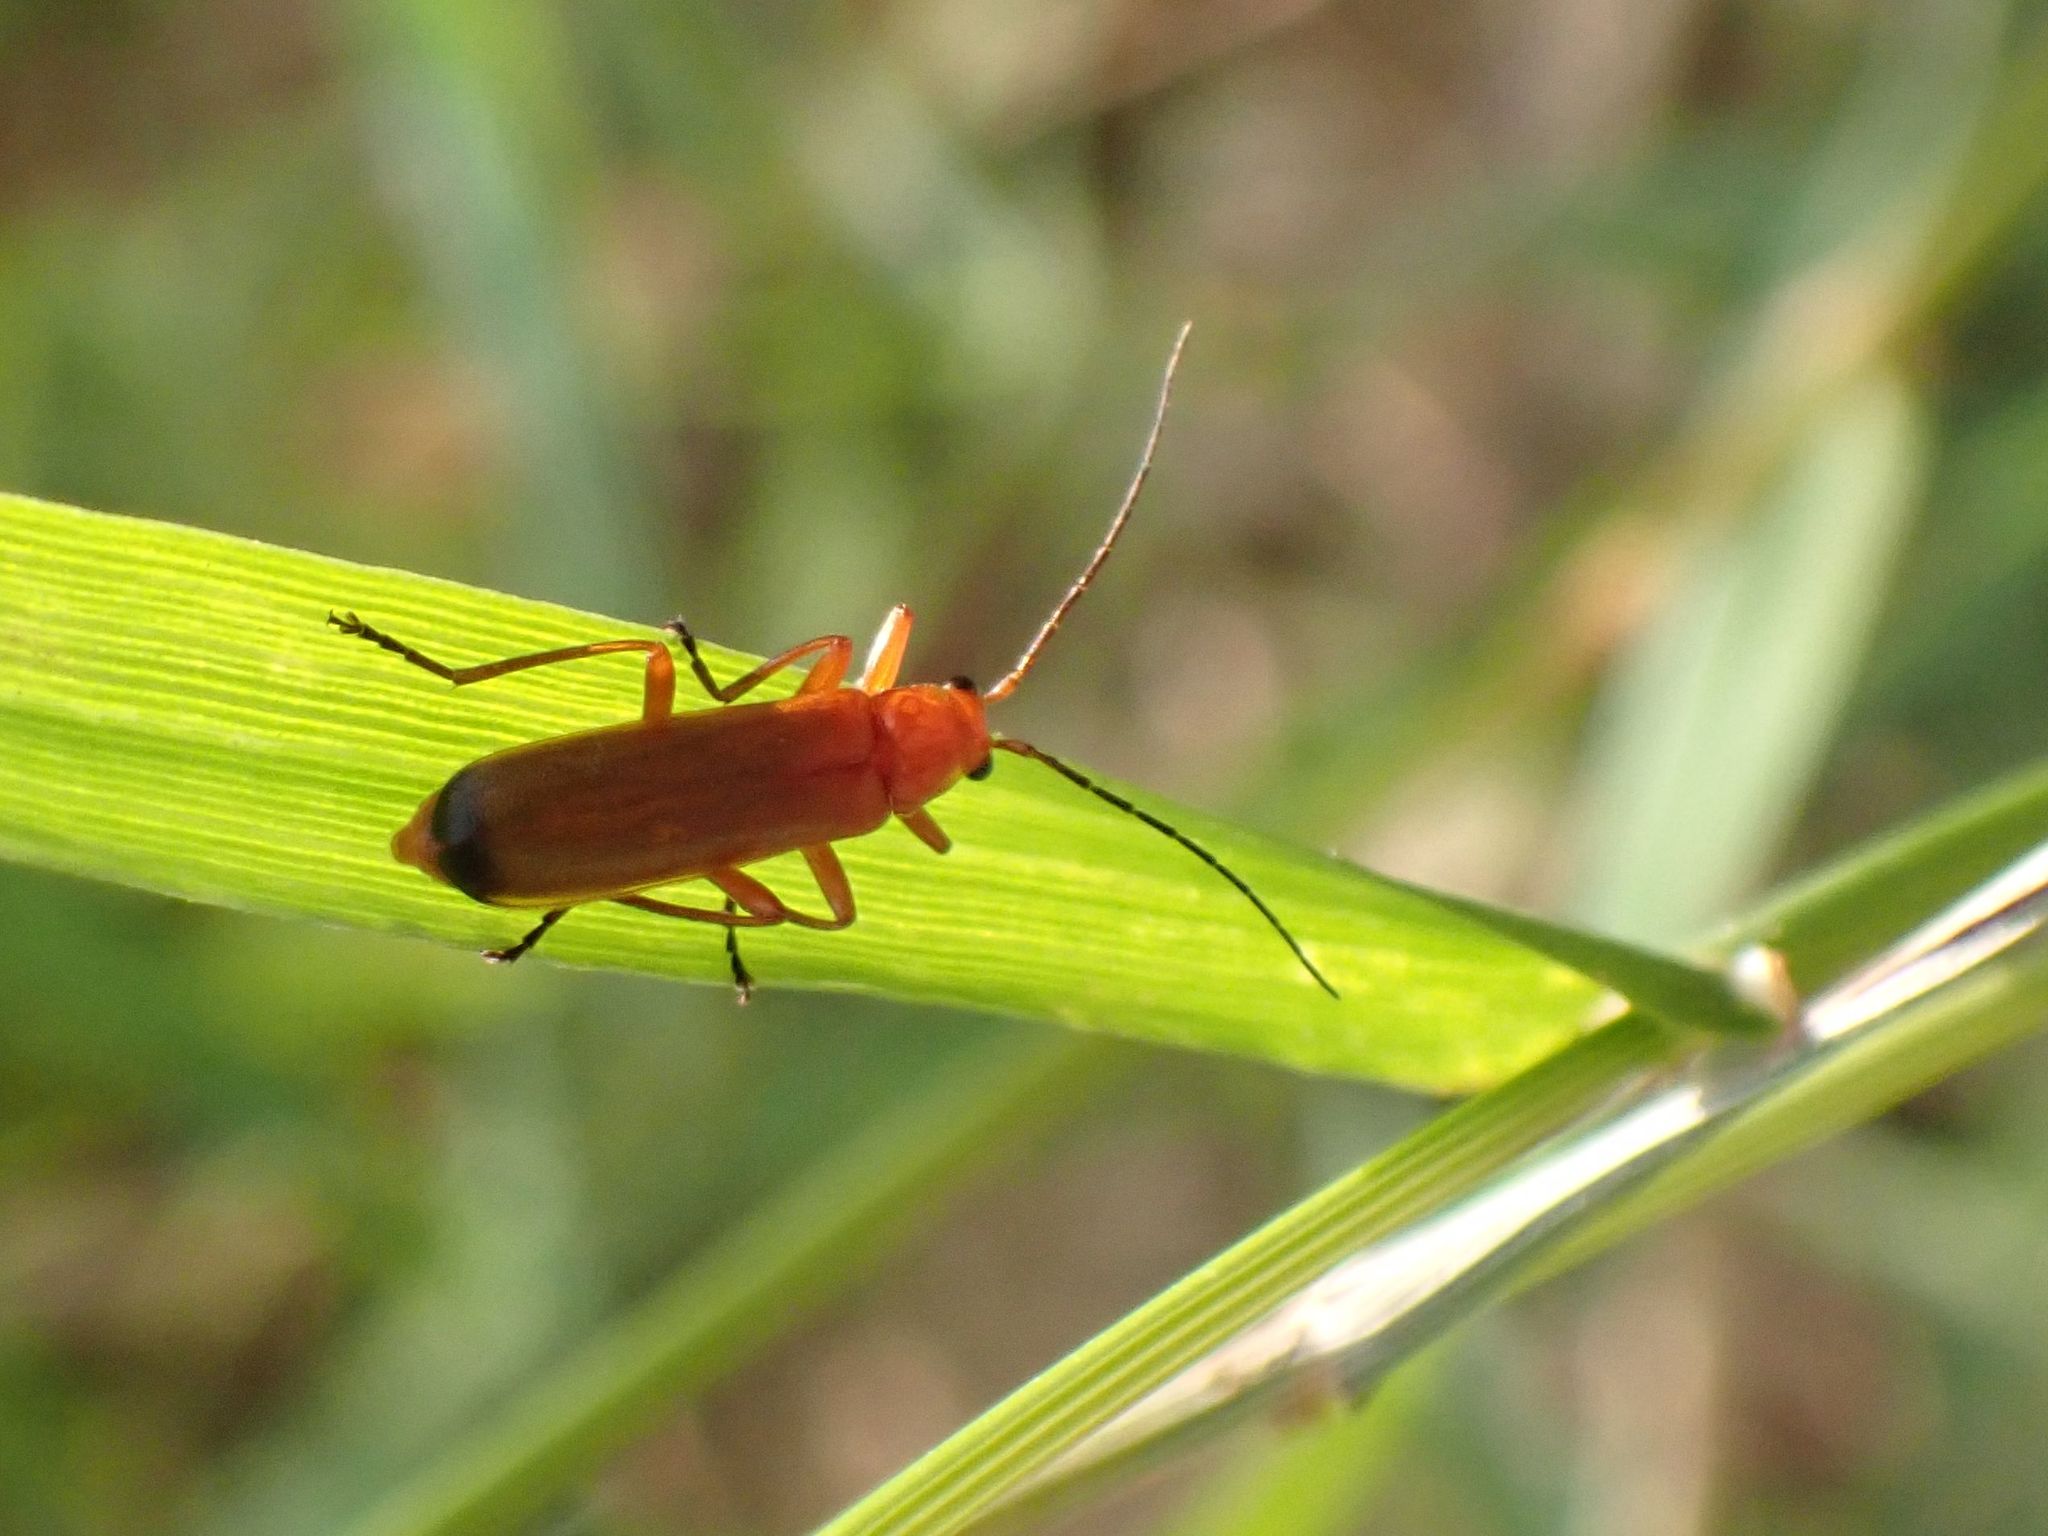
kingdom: Animalia
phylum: Arthropoda
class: Insecta
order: Coleoptera
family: Cantharidae
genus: Rhagonycha
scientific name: Rhagonycha fulva
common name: Common red soldier beetle
